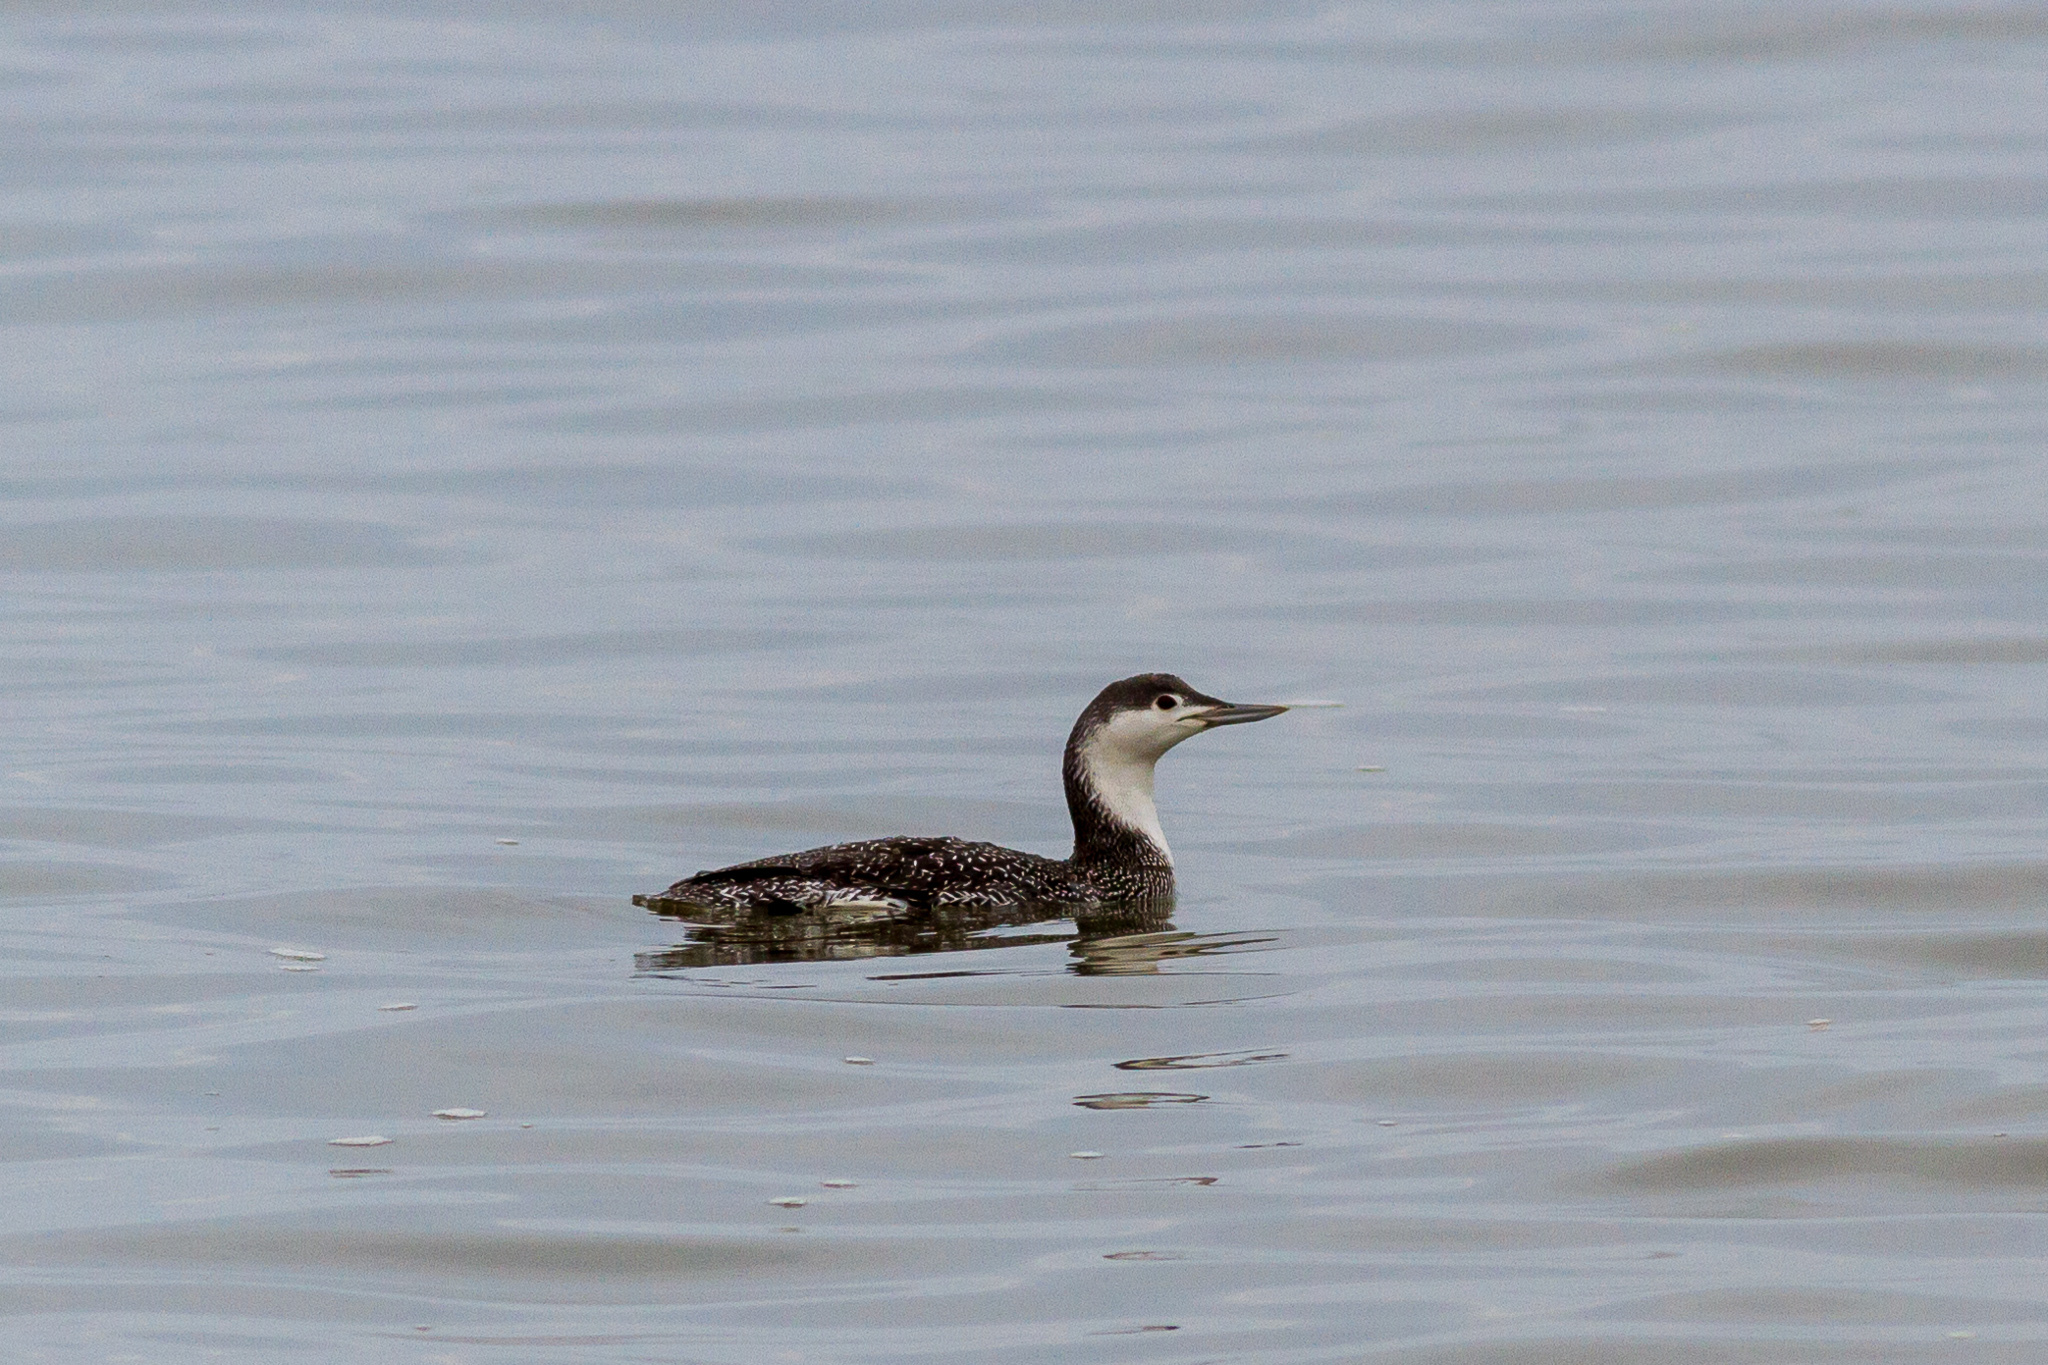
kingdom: Animalia
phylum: Chordata
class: Aves
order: Gaviiformes
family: Gaviidae
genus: Gavia
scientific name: Gavia stellata
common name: Red-throated loon
